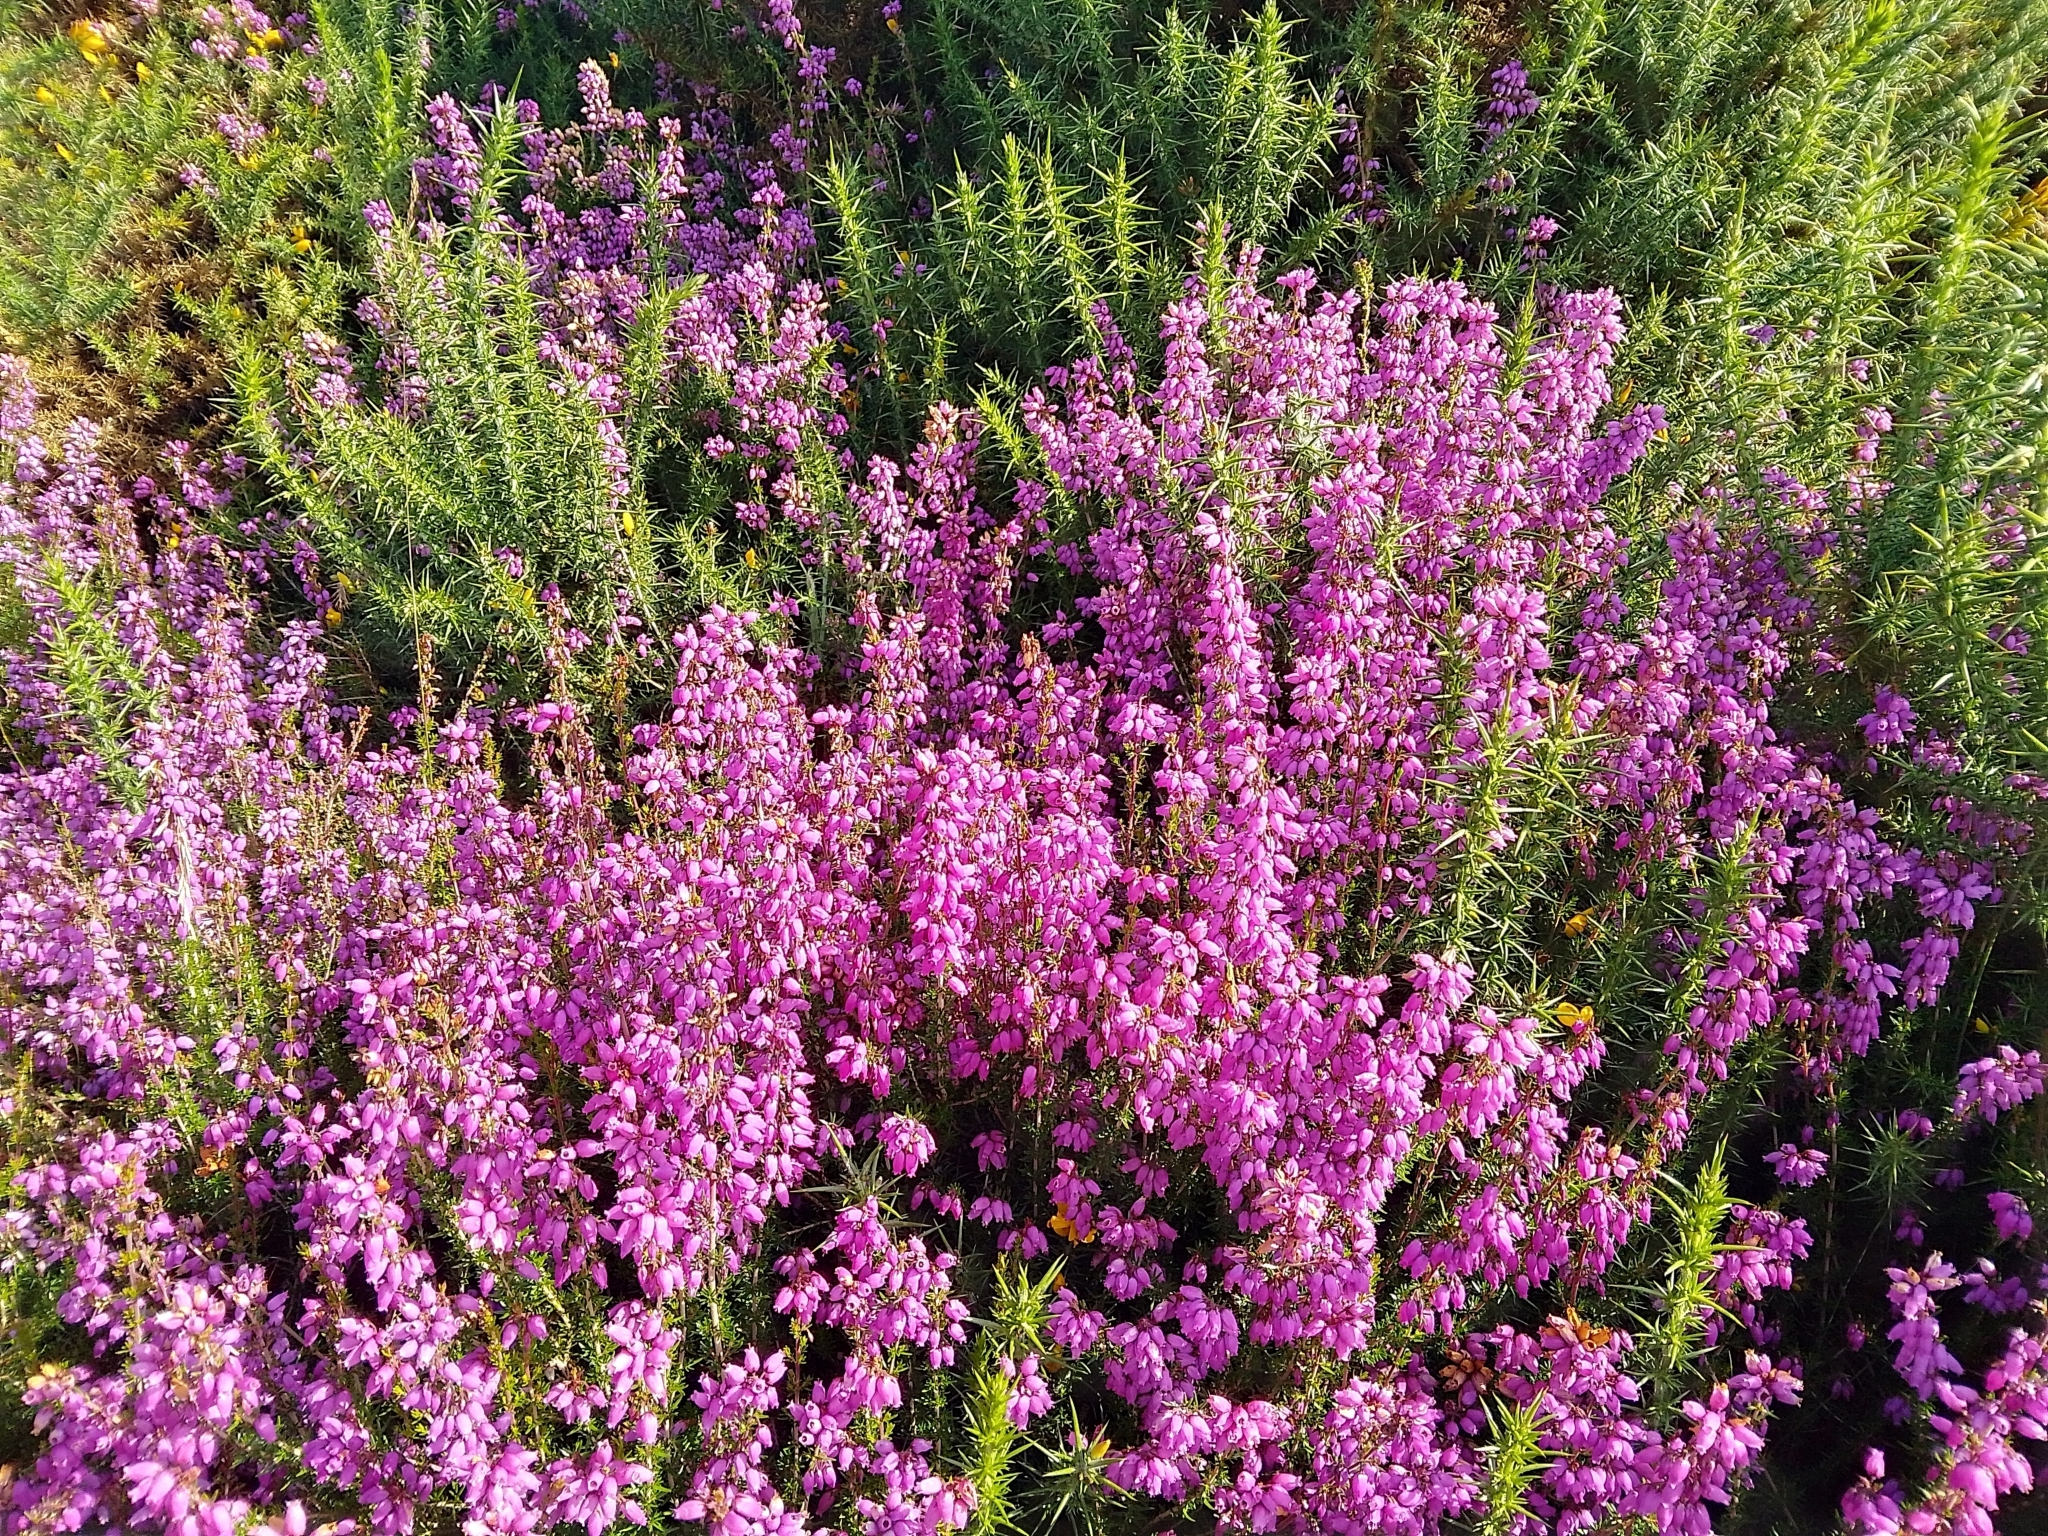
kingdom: Plantae
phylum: Tracheophyta
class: Magnoliopsida
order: Ericales
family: Ericaceae
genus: Erica
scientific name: Erica cinerea
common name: Bell heather
